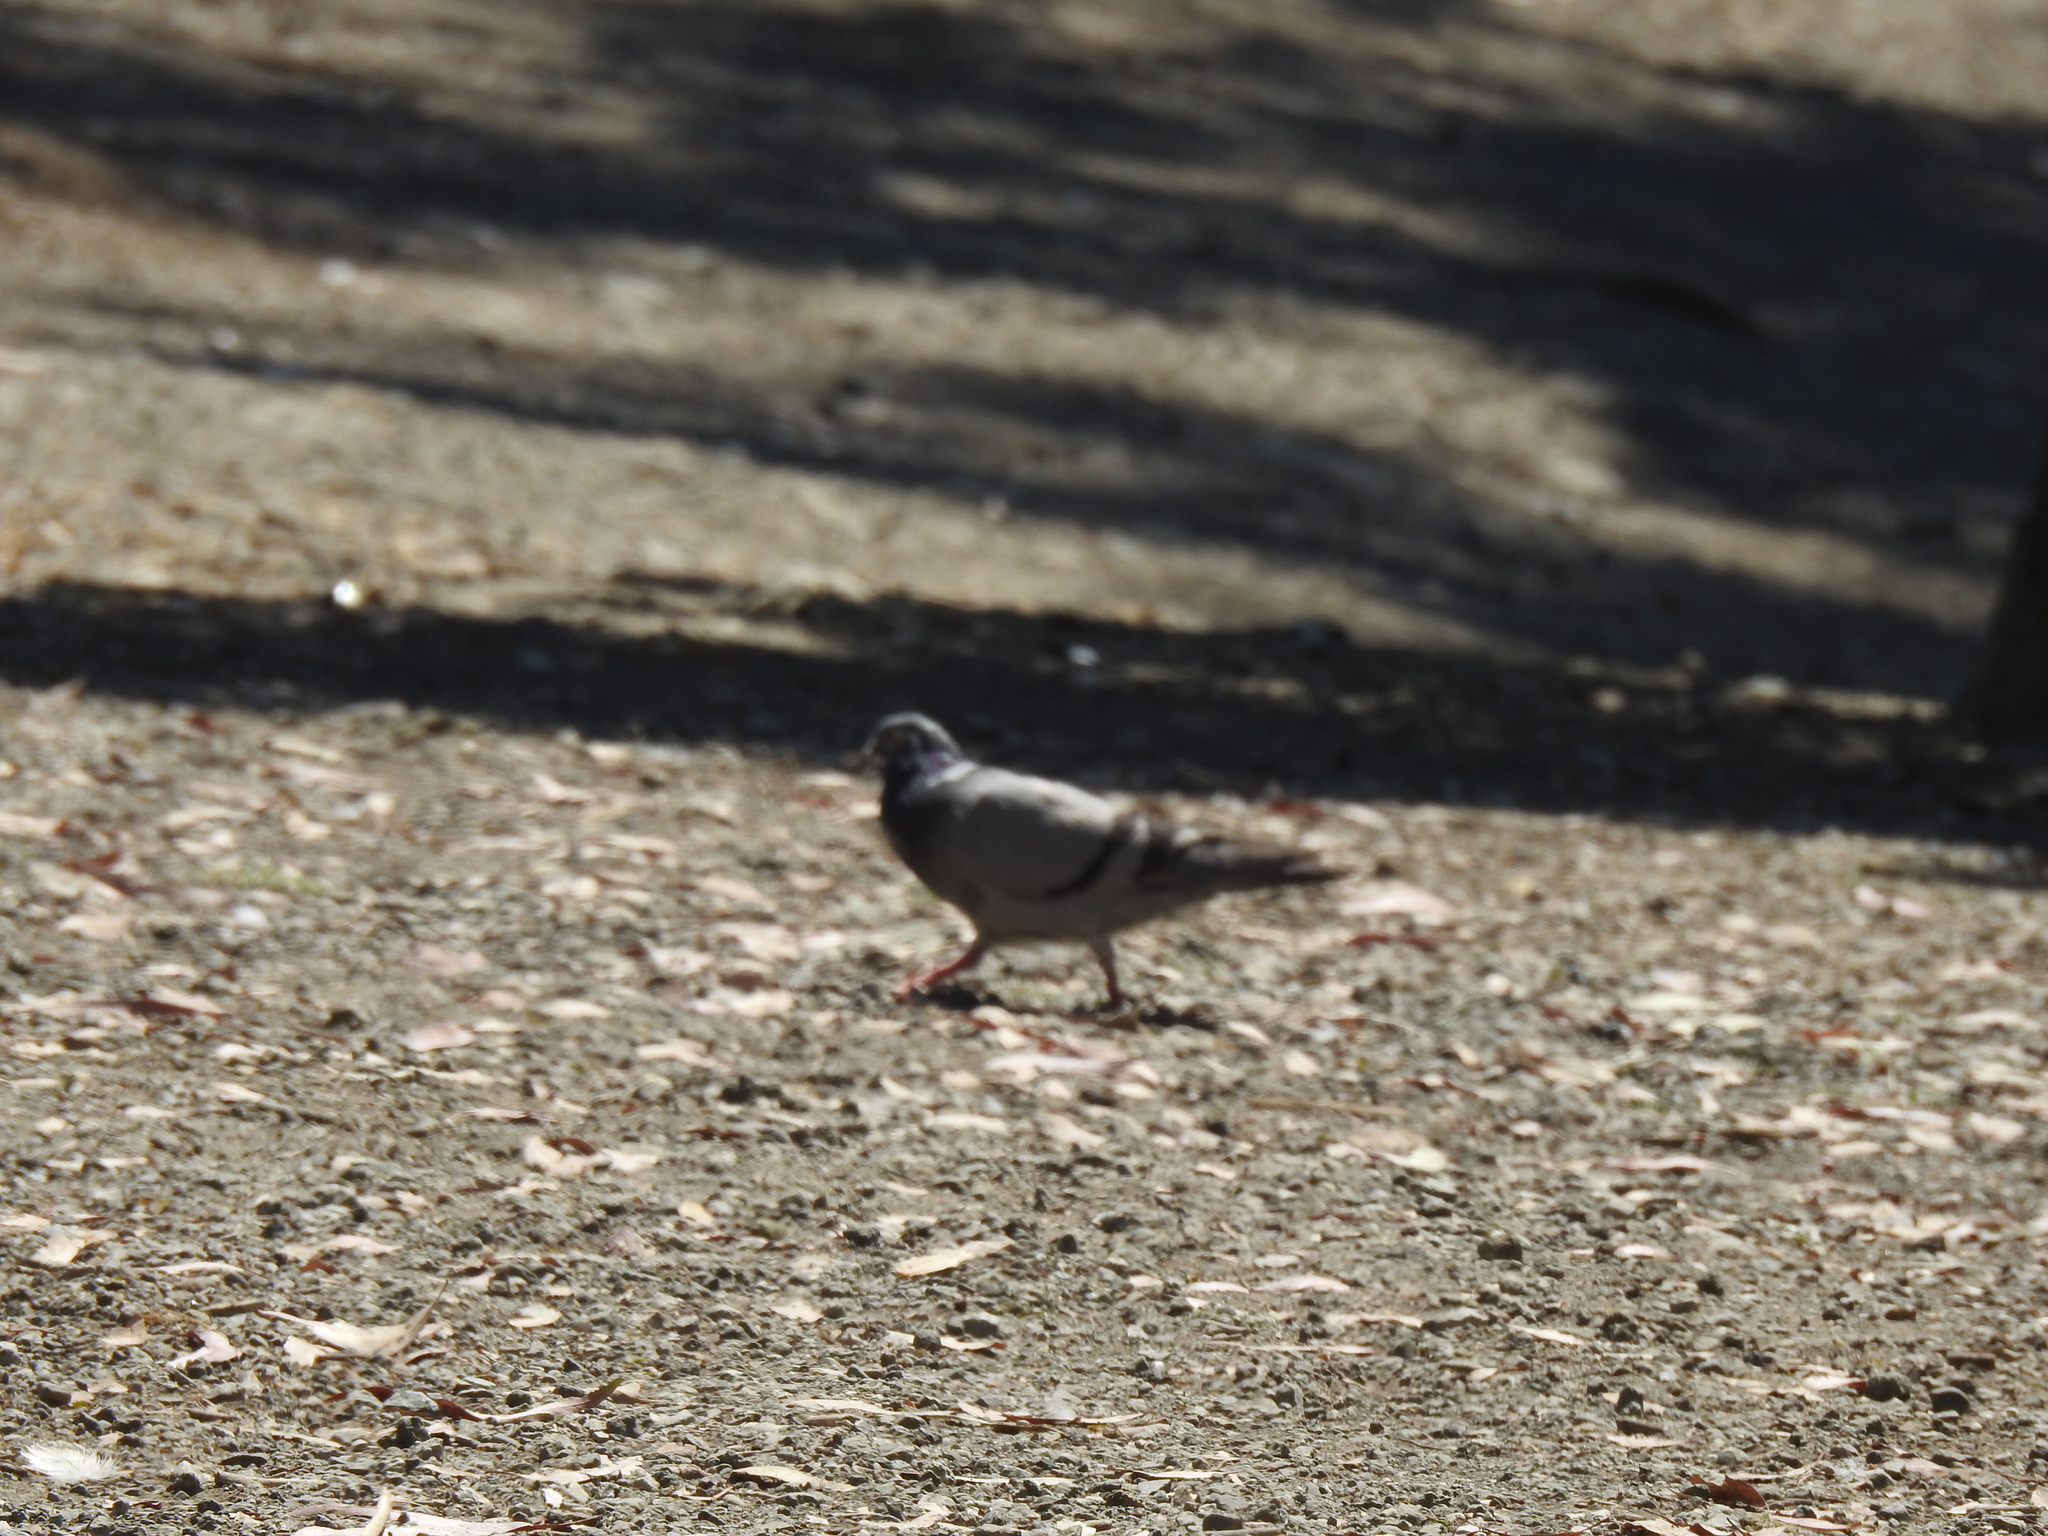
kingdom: Animalia
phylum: Chordata
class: Aves
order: Columbiformes
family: Columbidae
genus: Columba
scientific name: Columba livia
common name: Rock pigeon
